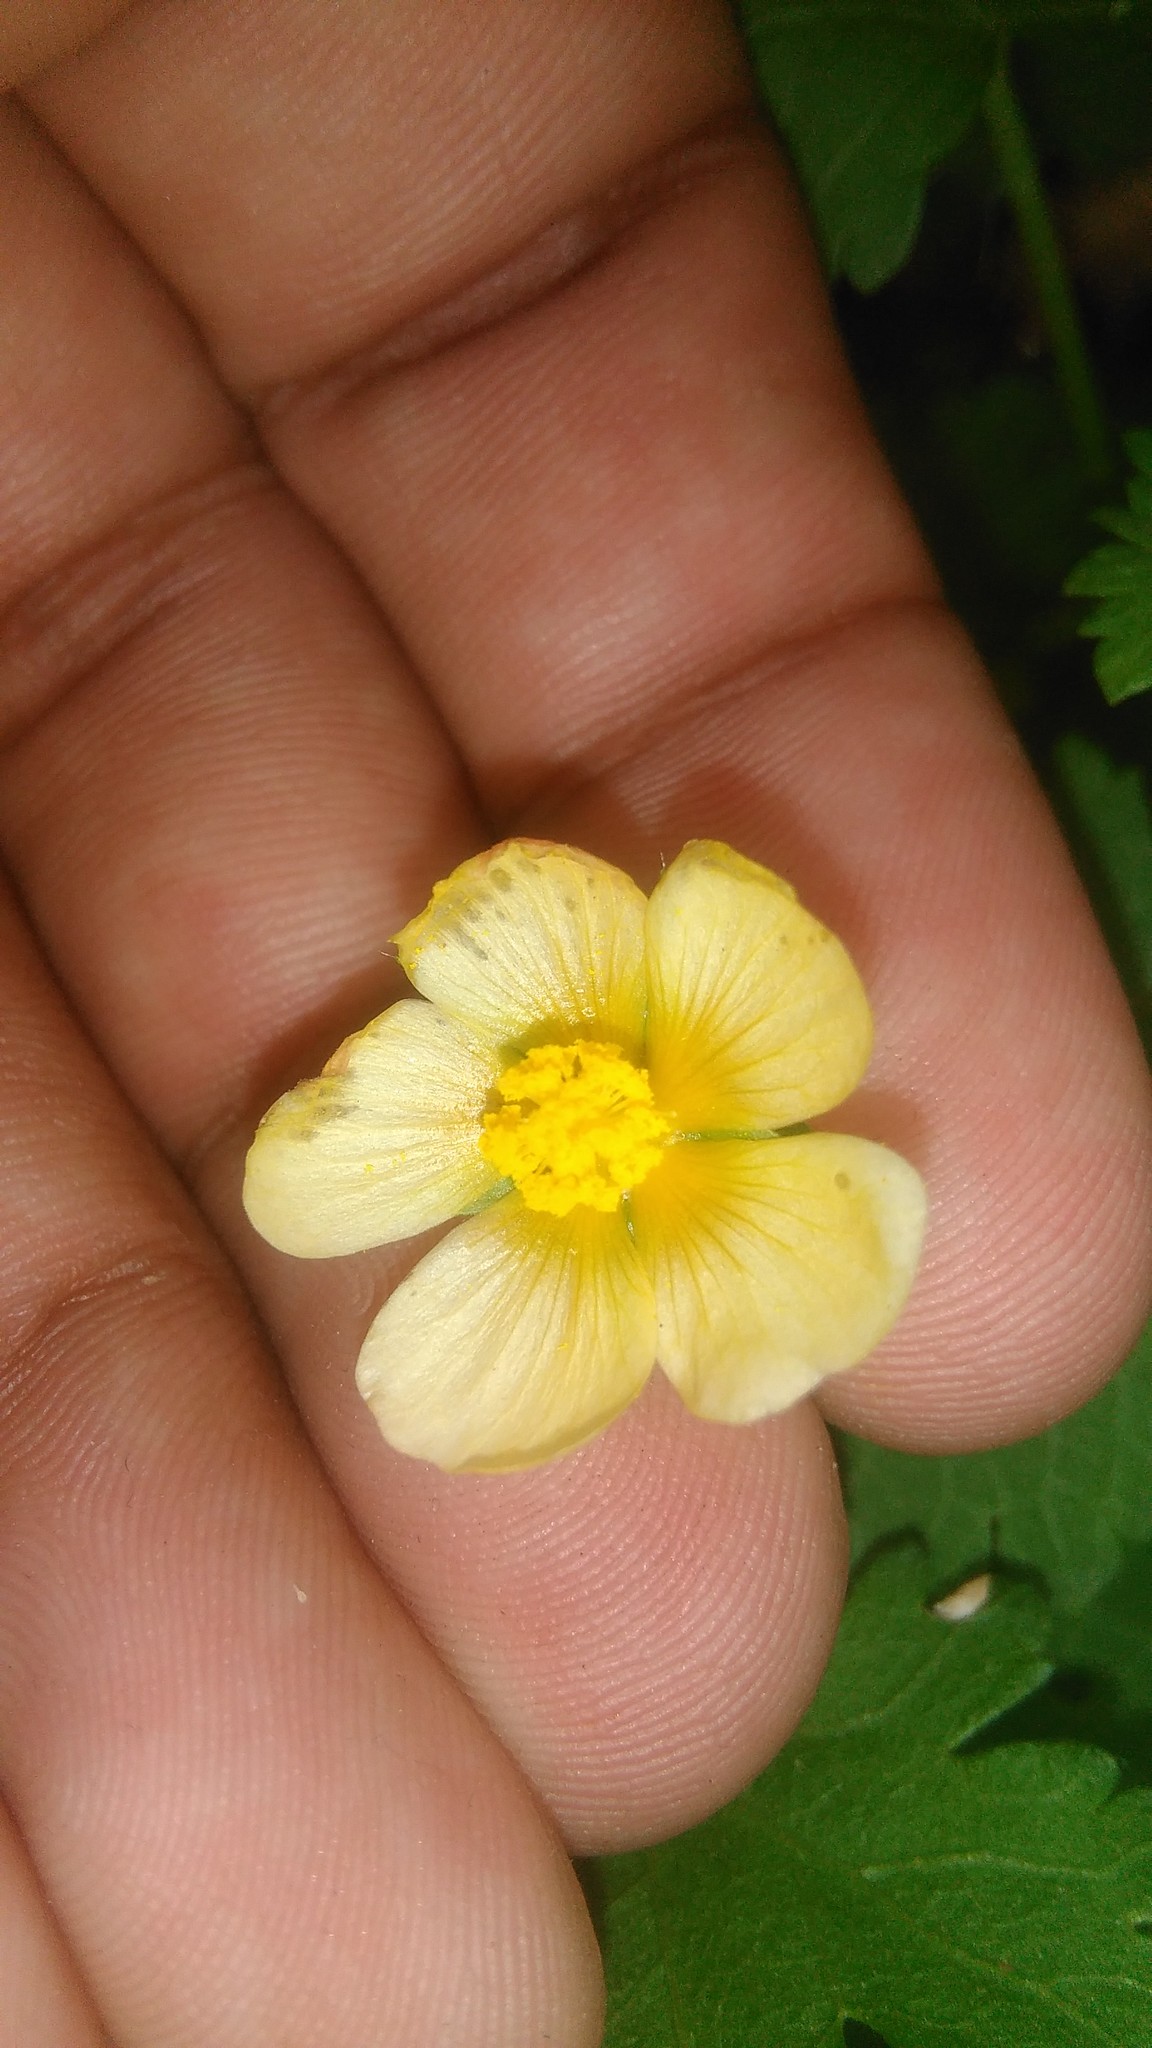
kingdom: Plantae
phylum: Tracheophyta
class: Magnoliopsida
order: Malvales
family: Malvaceae
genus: Modiolastrum
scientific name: Modiolastrum malvifolium
